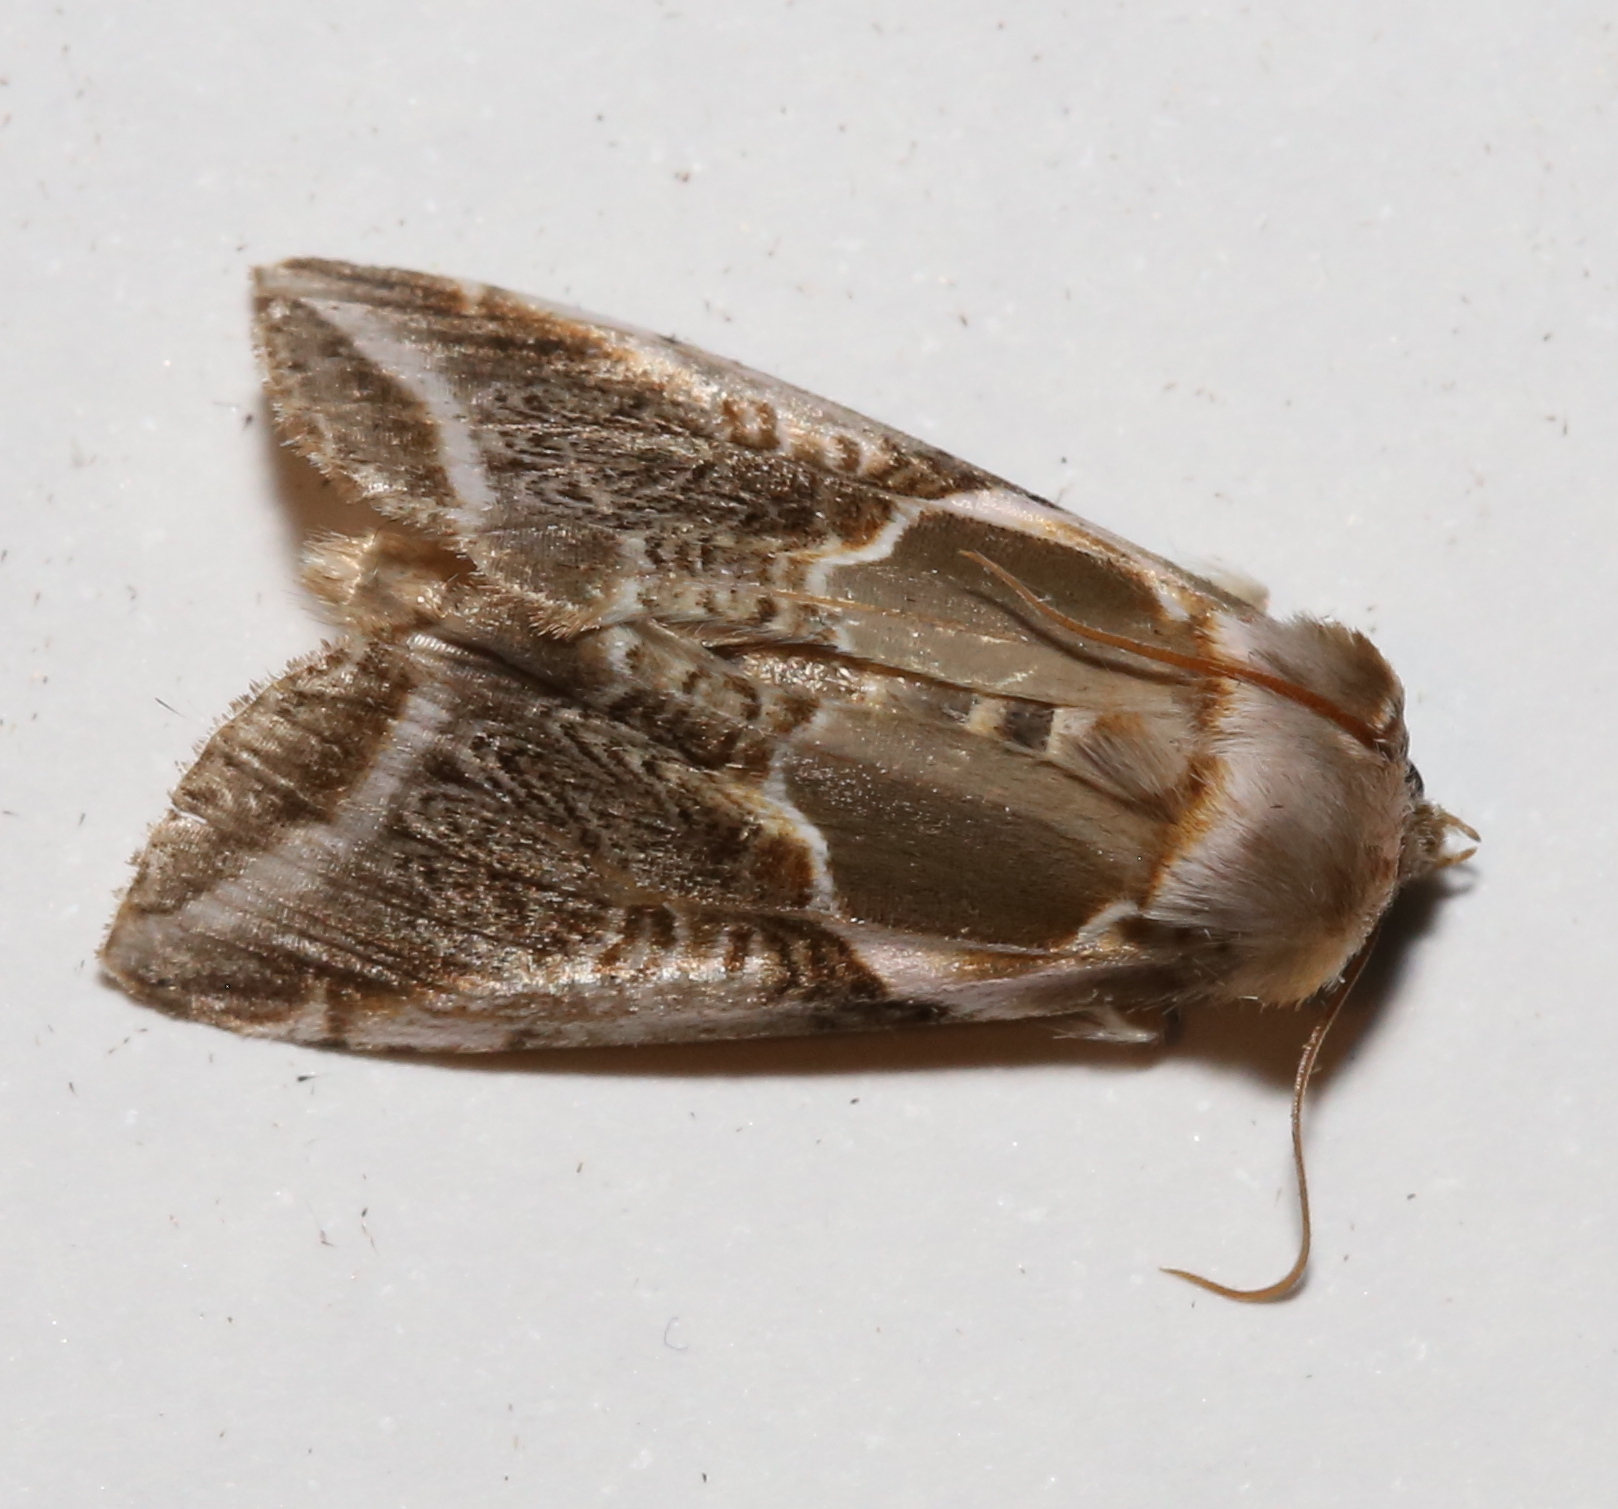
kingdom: Animalia
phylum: Arthropoda
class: Insecta
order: Lepidoptera
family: Drepanidae
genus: Habrosyne
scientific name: Habrosyne scripta
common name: Lettered habrosyne moth
